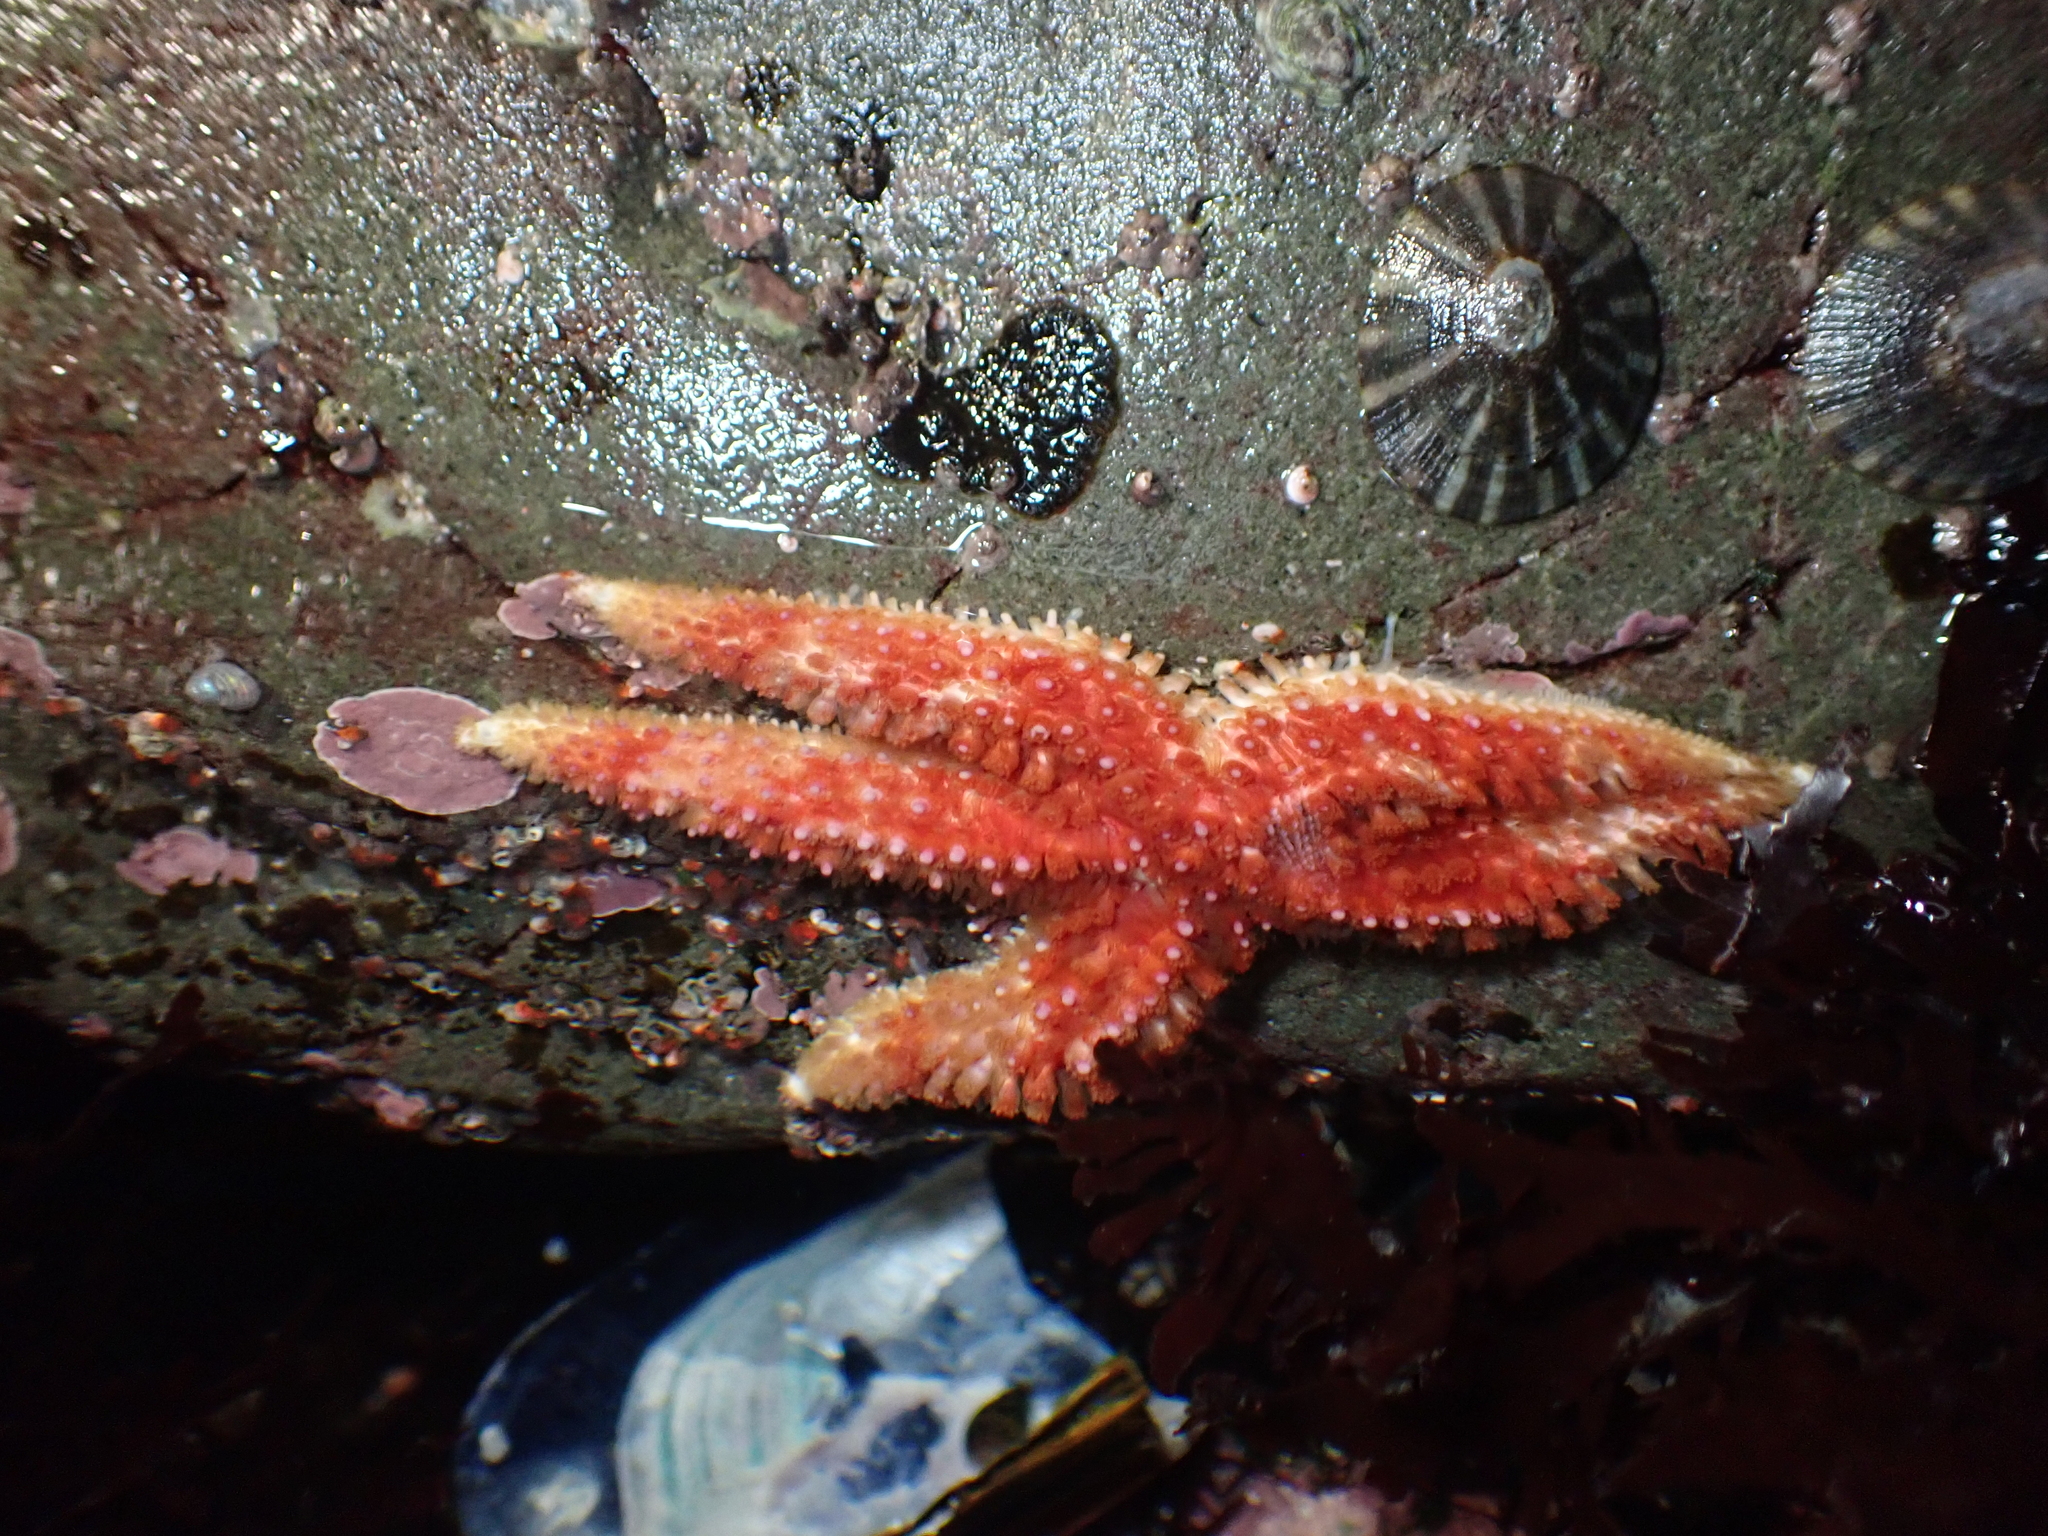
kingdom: Animalia
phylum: Echinodermata
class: Asteroidea
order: Forcipulatida
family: Asteriidae
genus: Orthasterias
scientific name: Orthasterias koehleri
